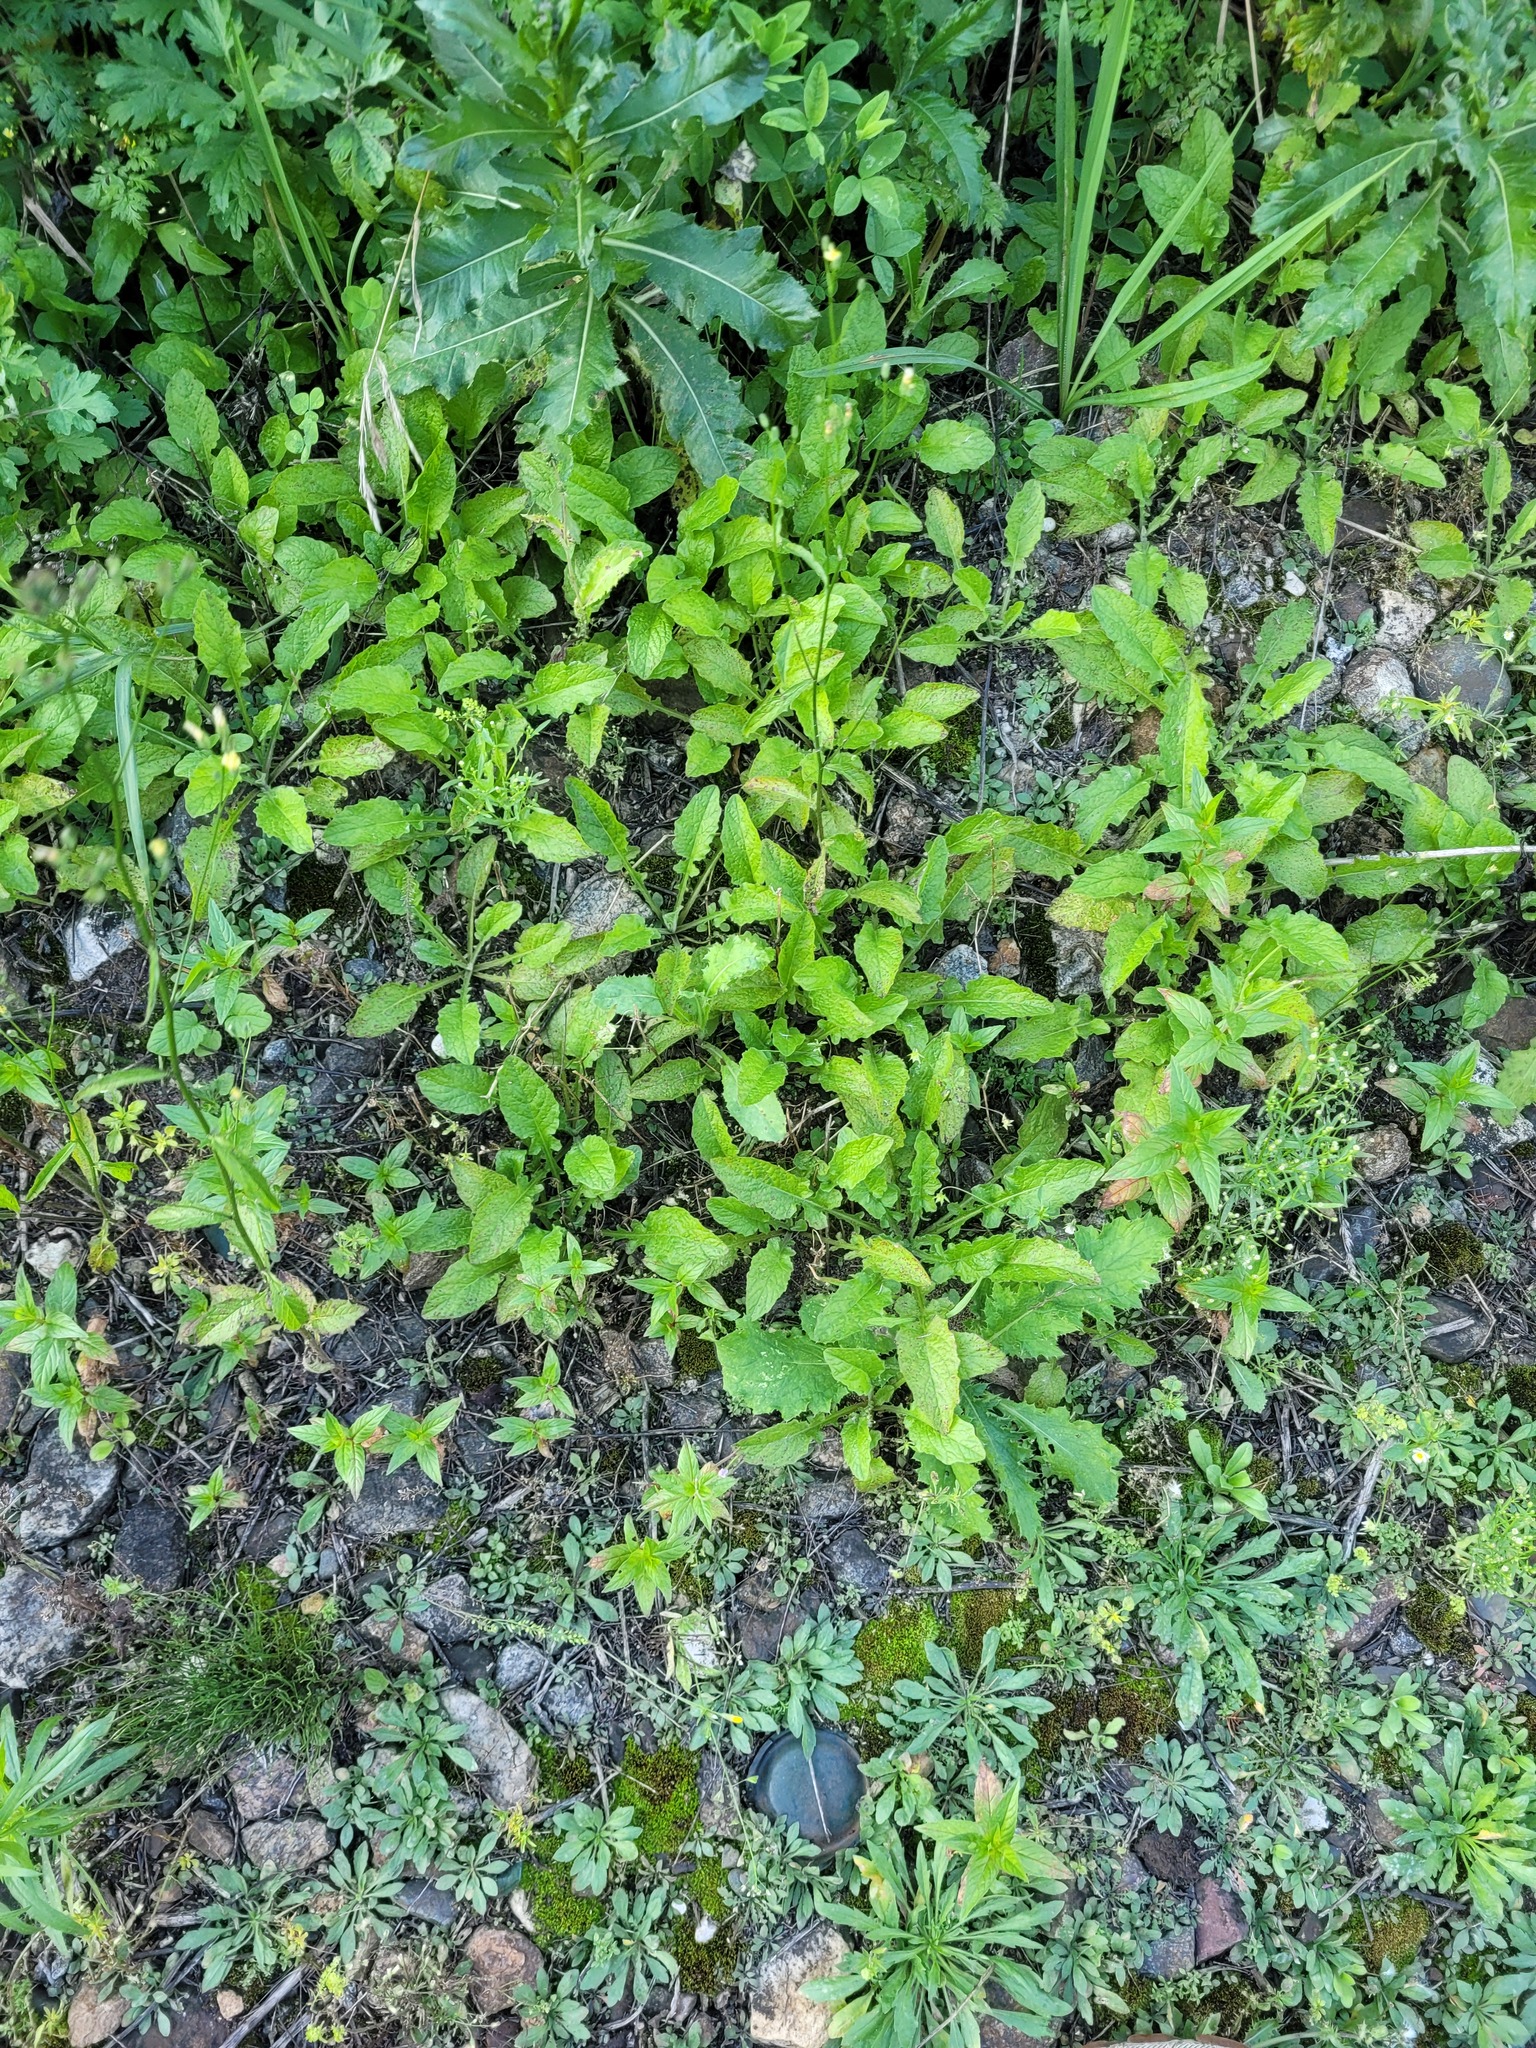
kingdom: Plantae
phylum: Tracheophyta
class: Magnoliopsida
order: Asterales
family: Asteraceae
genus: Lapsana
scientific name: Lapsana communis
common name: Nipplewort
